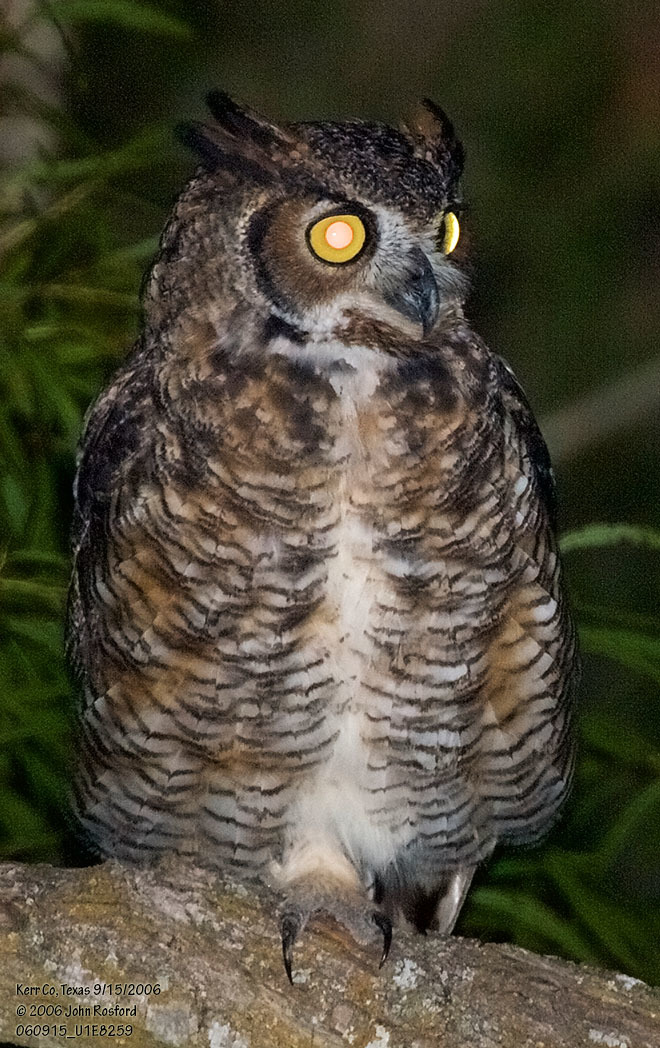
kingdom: Animalia
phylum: Chordata
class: Aves
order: Strigiformes
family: Strigidae
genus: Bubo
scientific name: Bubo virginianus
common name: Great horned owl
